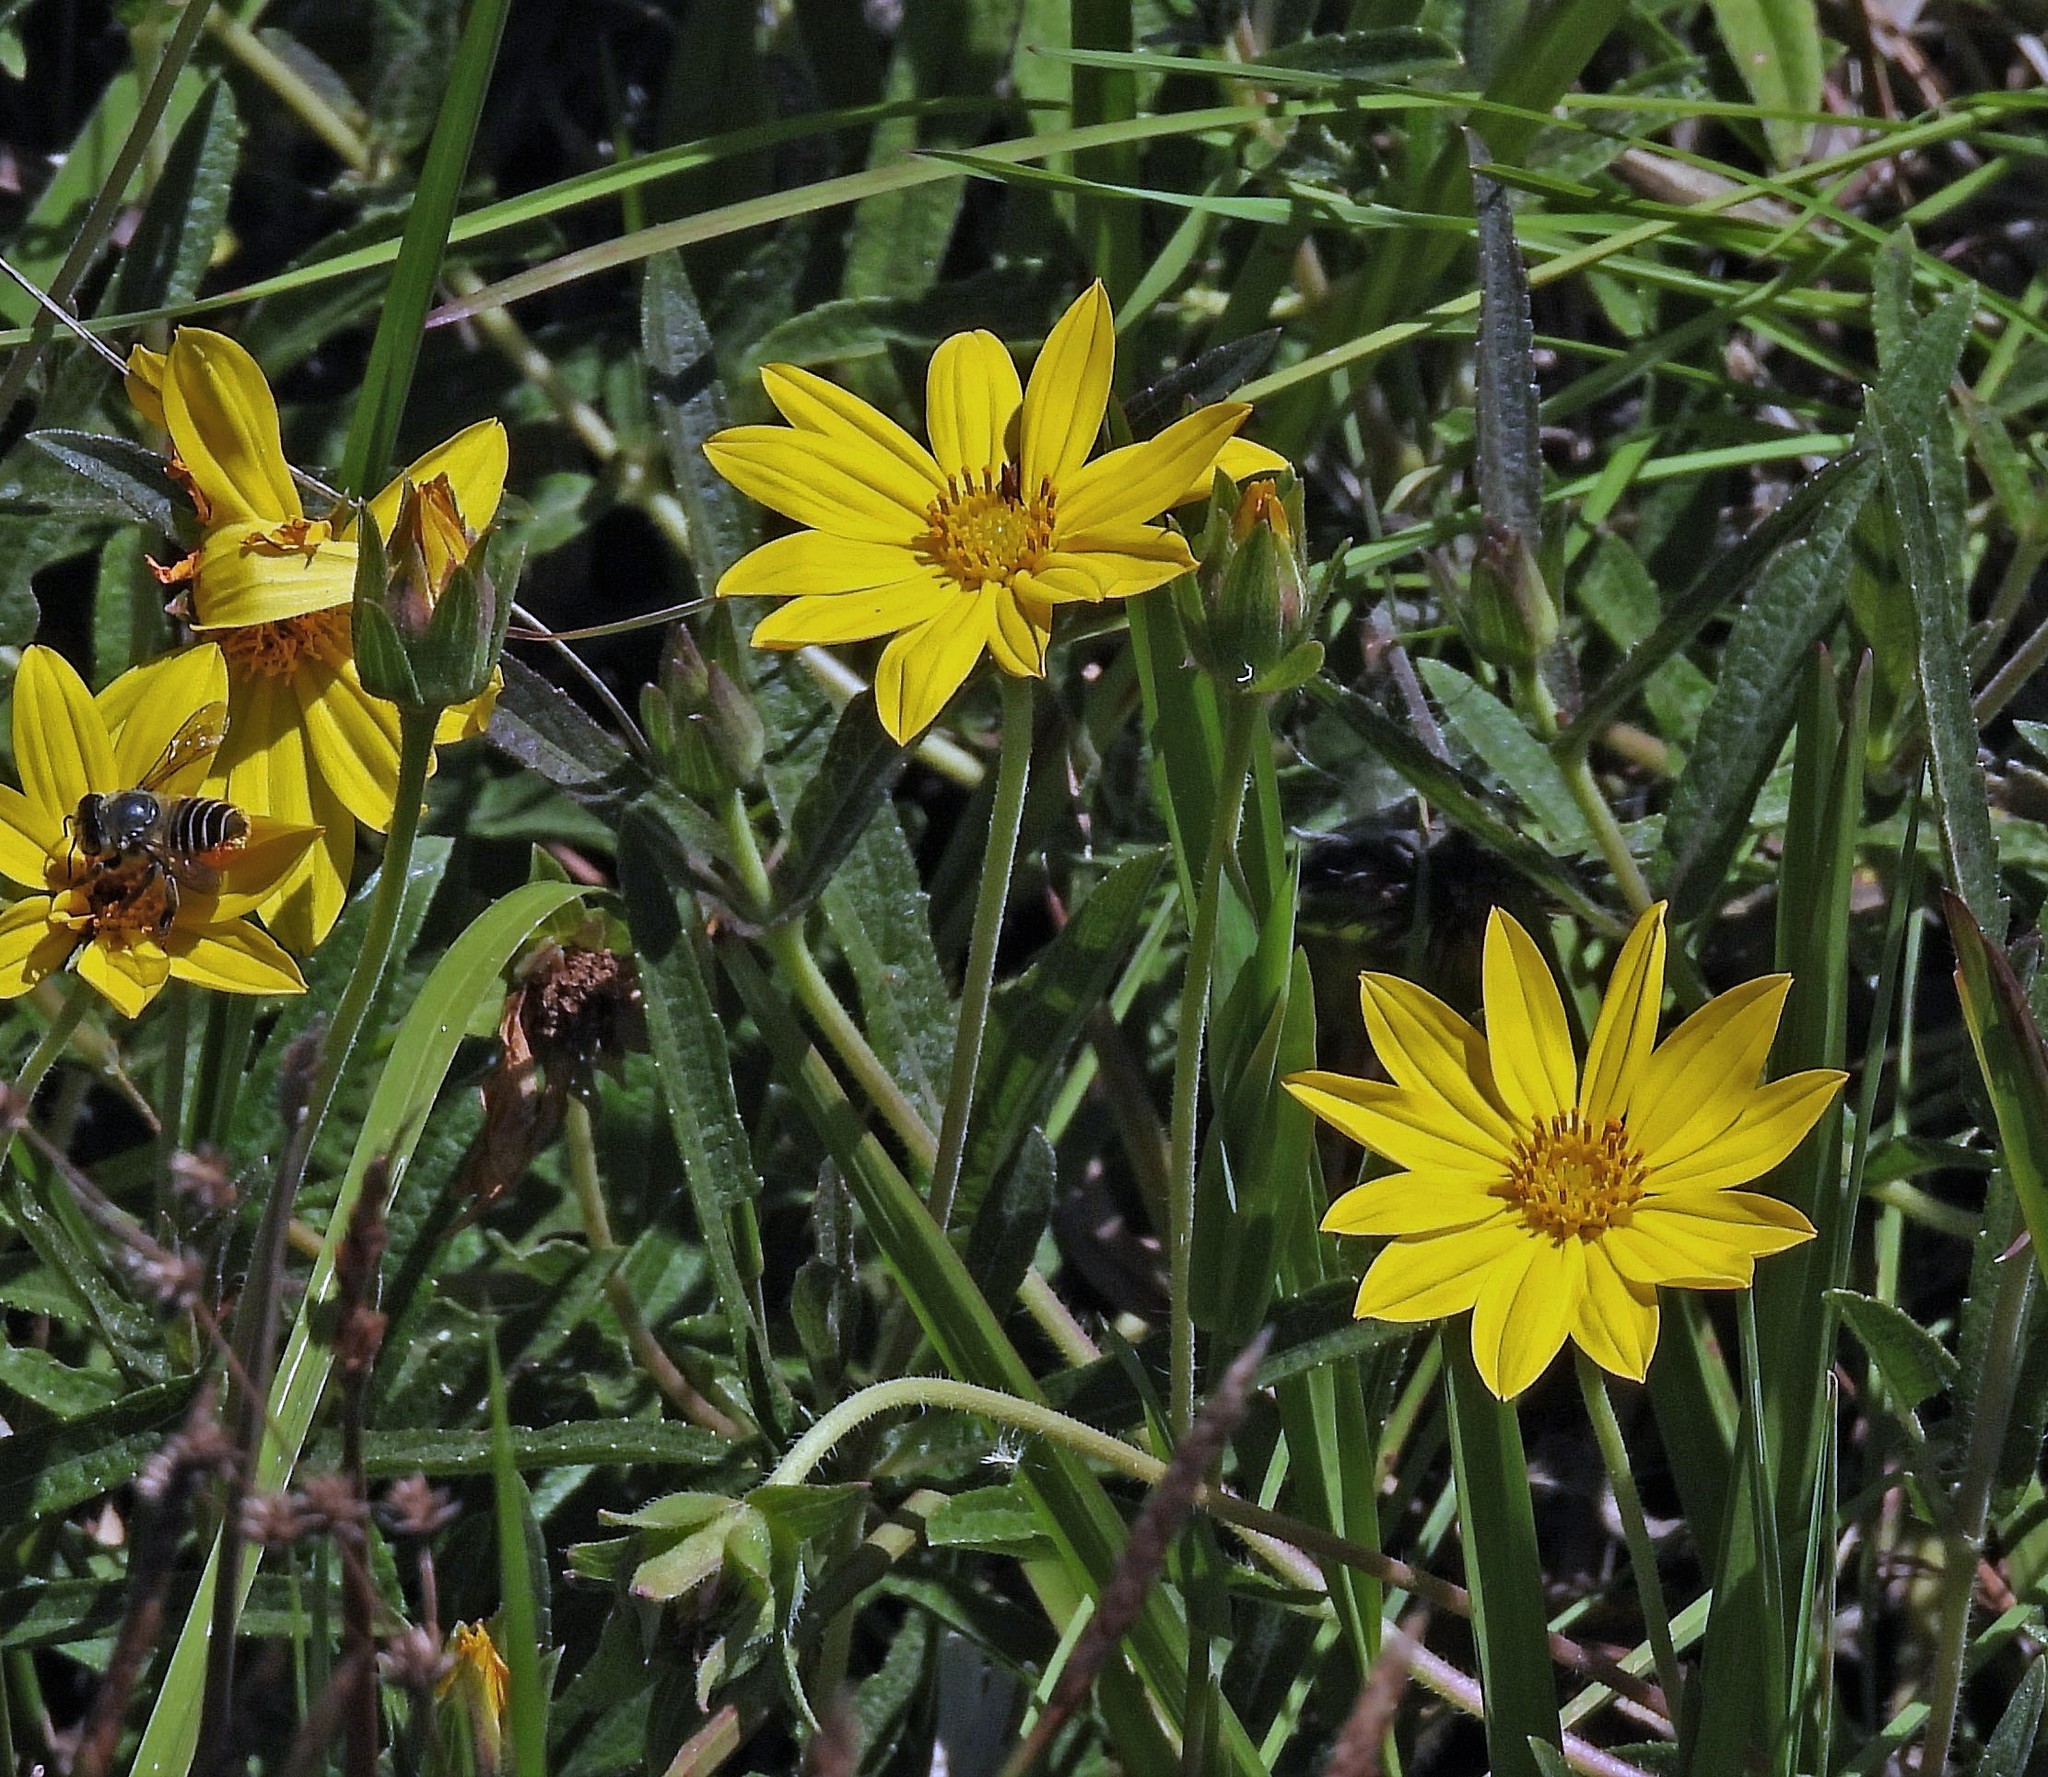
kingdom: Plantae
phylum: Tracheophyta
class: Magnoliopsida
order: Asterales
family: Asteraceae
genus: Wedelia
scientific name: Wedelia pascalioides
